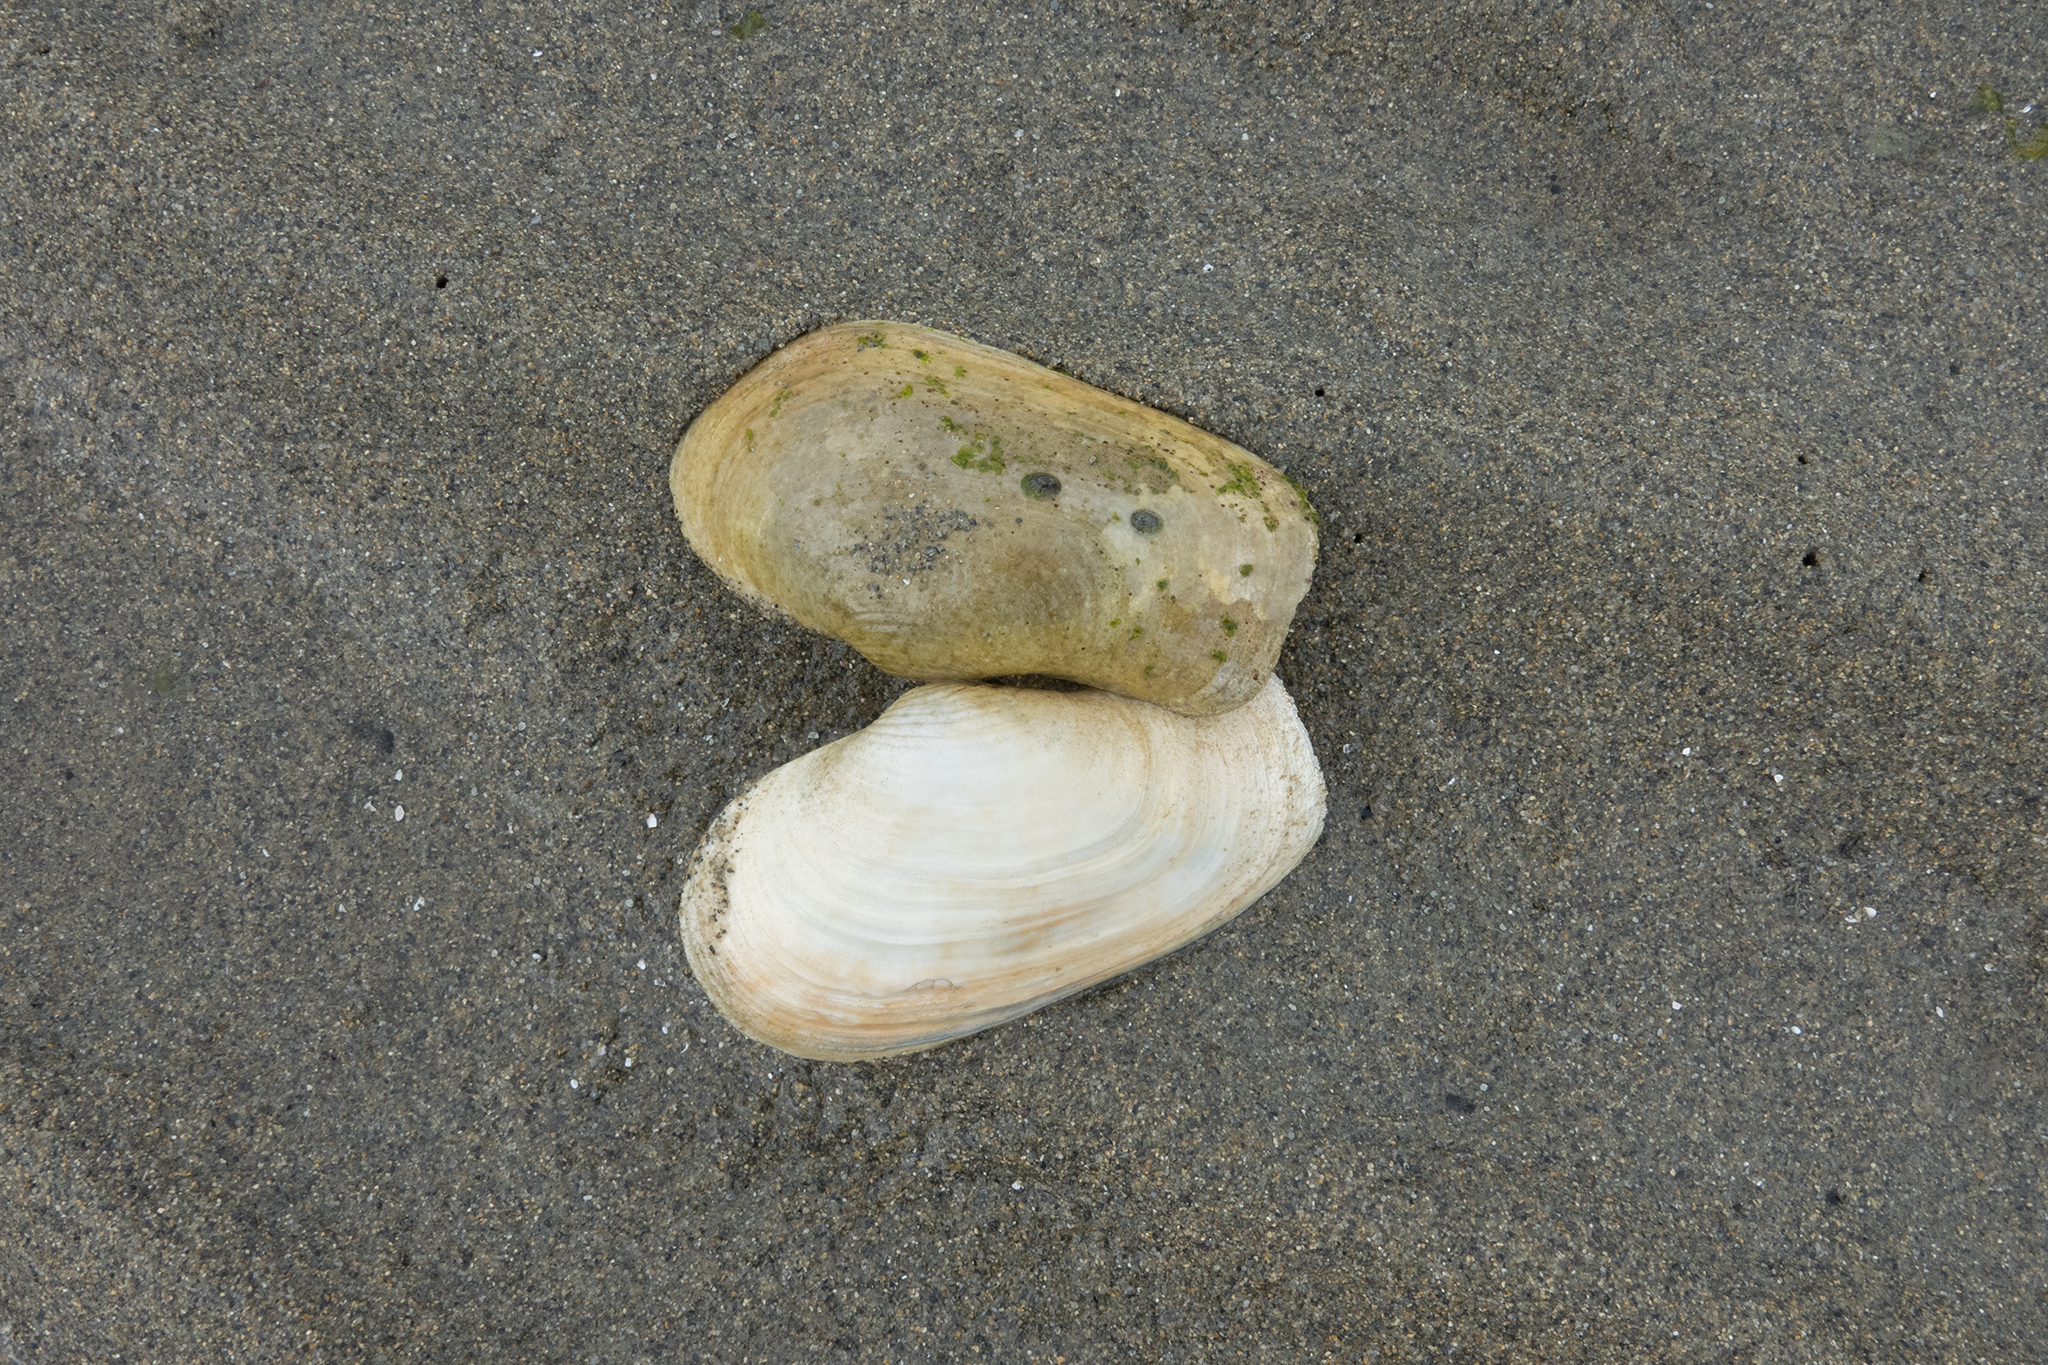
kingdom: Animalia
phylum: Mollusca
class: Bivalvia
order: Adapedonta
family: Hiatellidae
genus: Panopea
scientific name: Panopea zelandica
